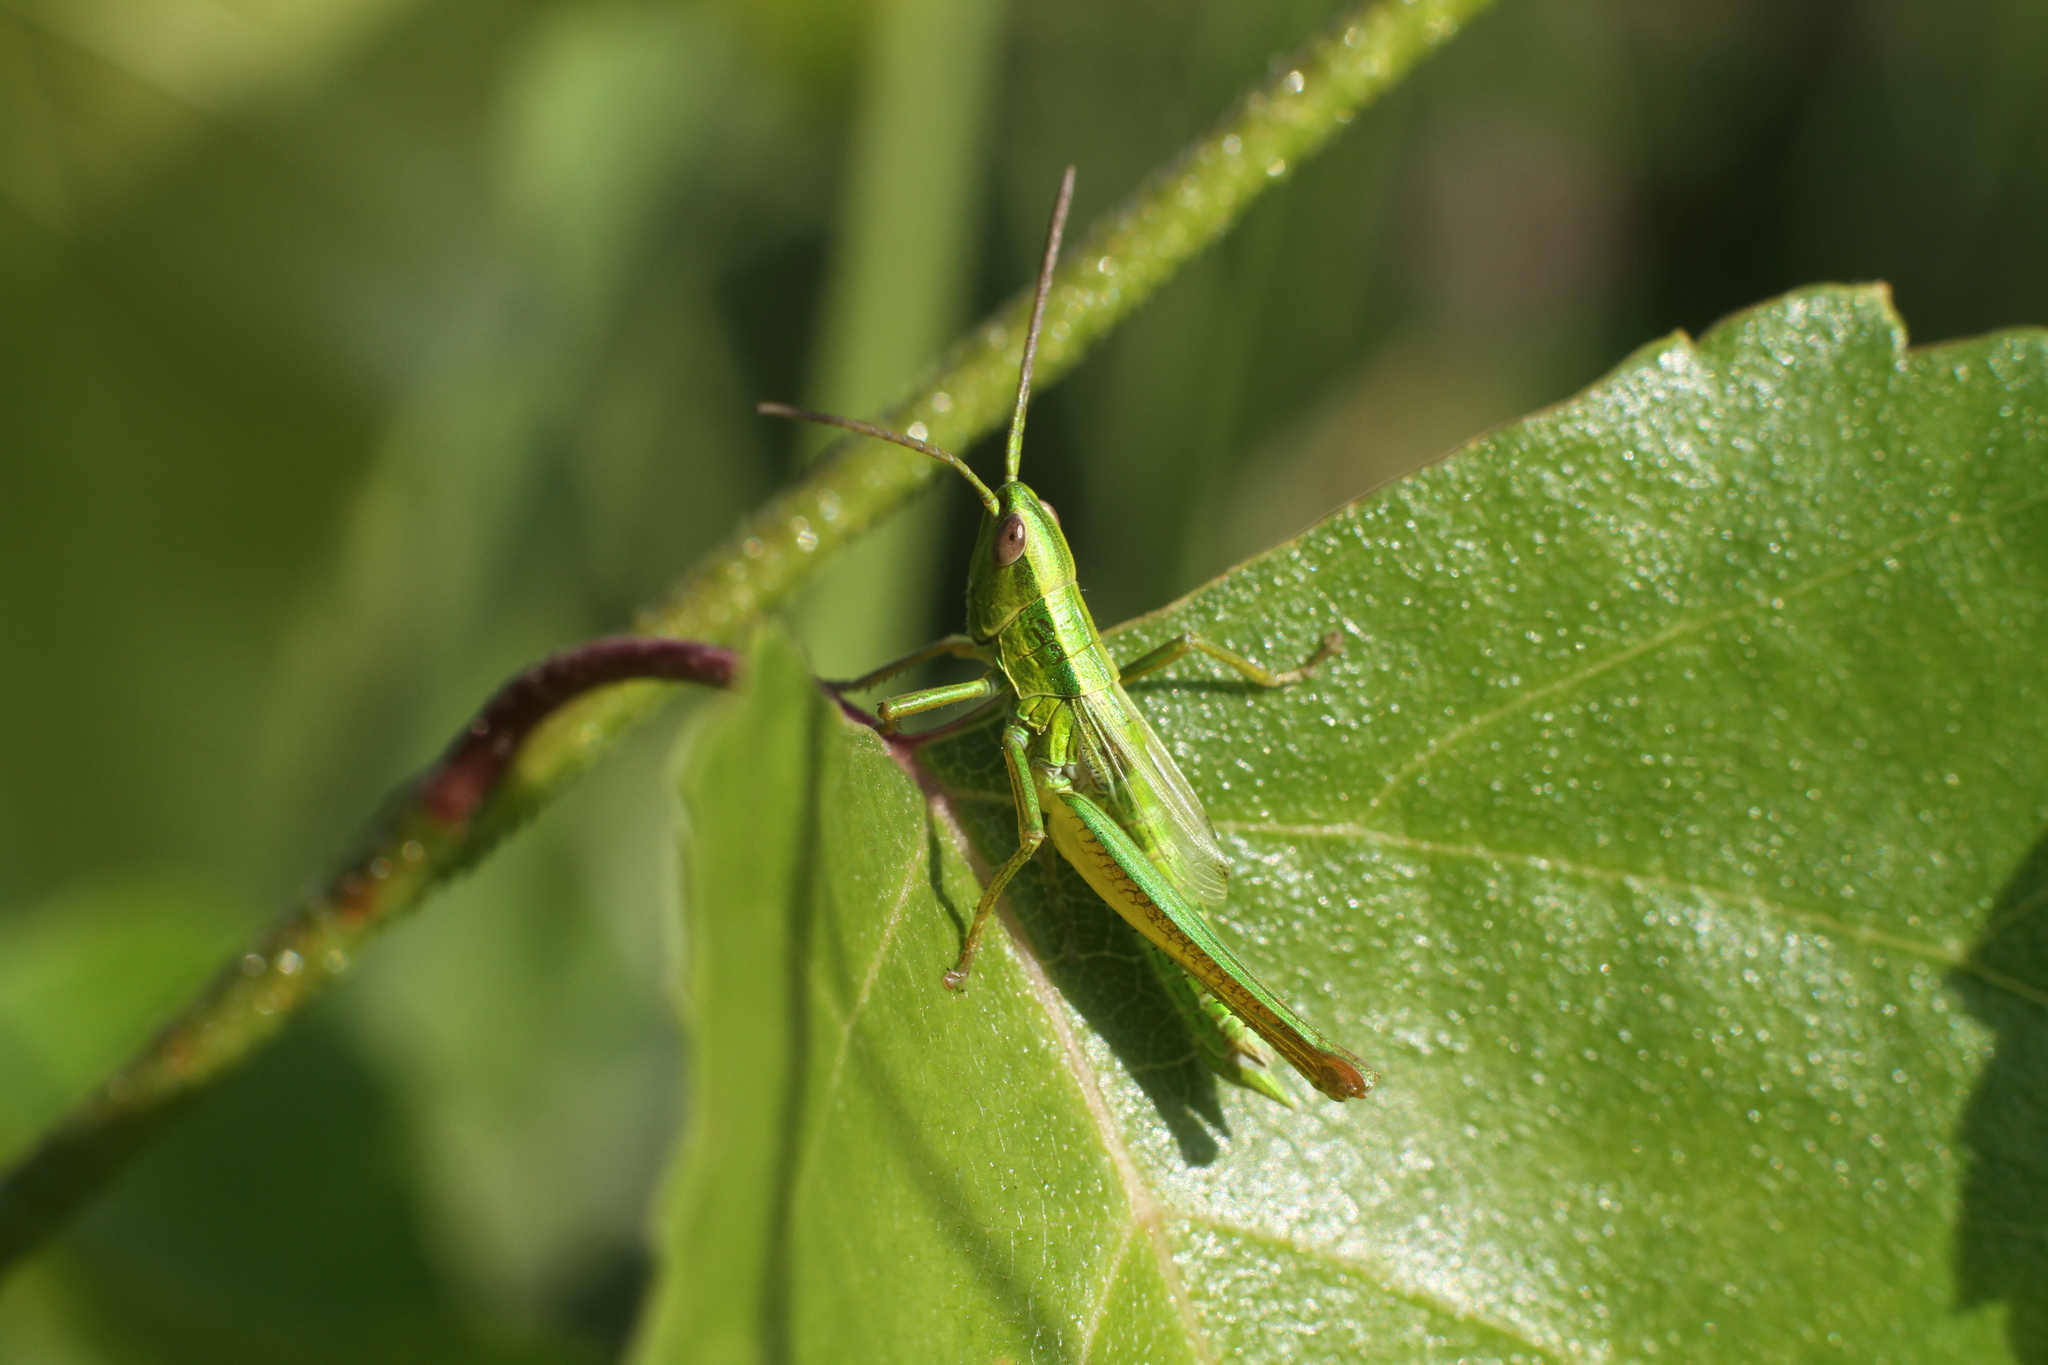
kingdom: Animalia
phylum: Arthropoda
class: Insecta
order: Orthoptera
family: Acrididae
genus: Euthystira
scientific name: Euthystira brachyptera
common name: Small gold grasshopper
